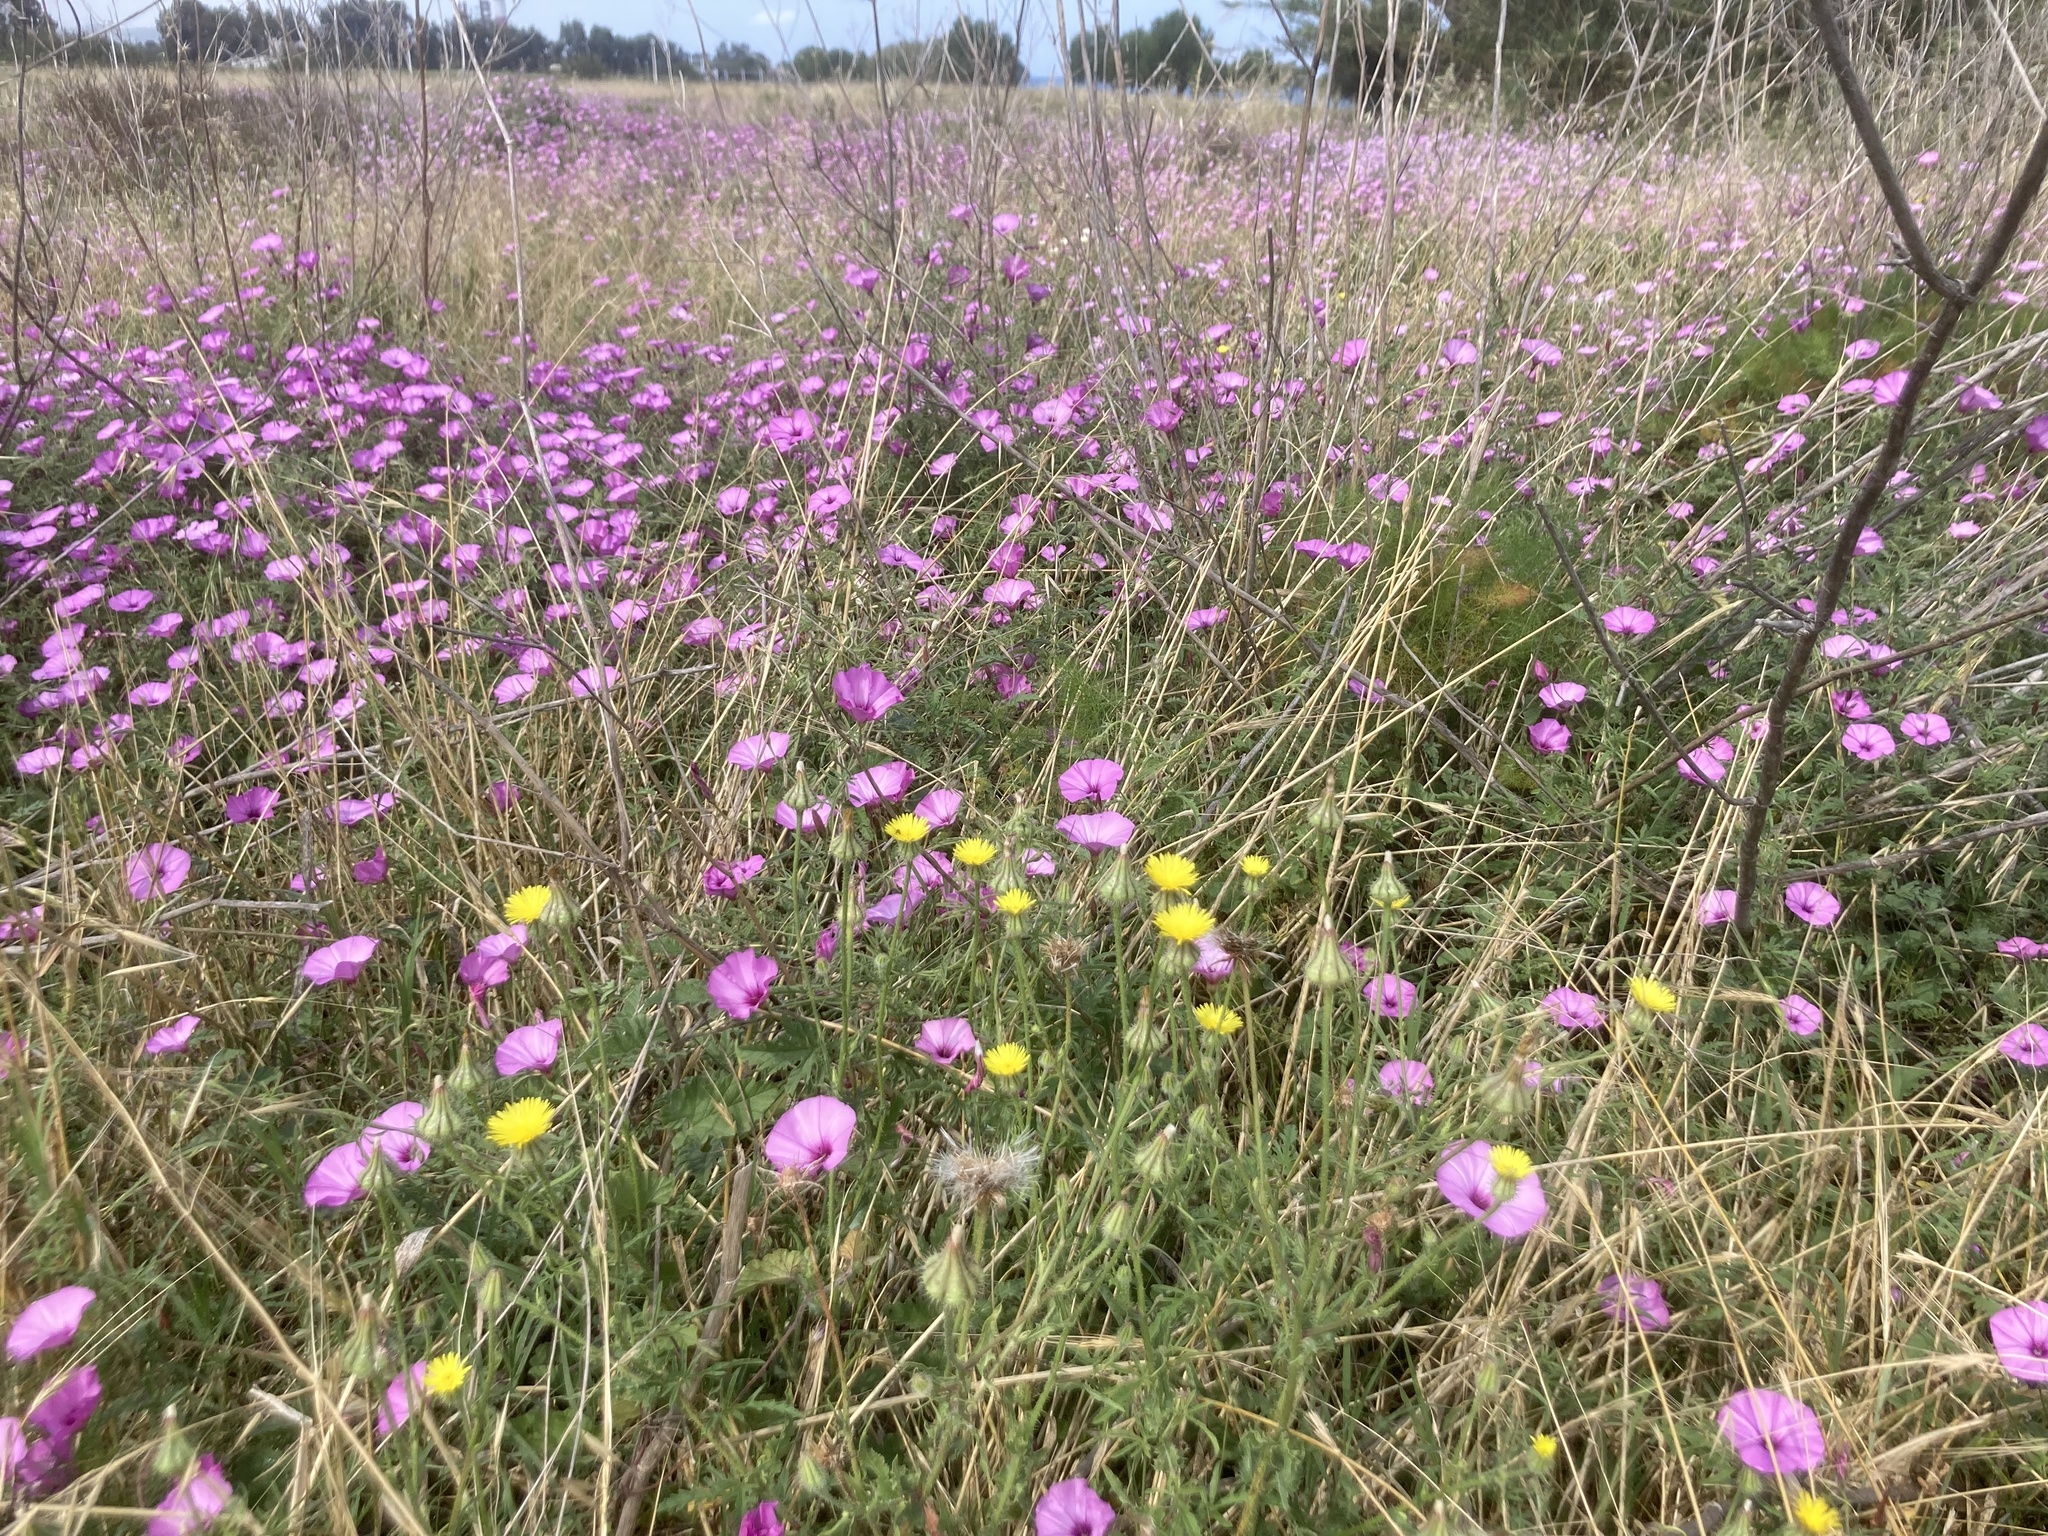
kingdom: Plantae
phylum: Tracheophyta
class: Magnoliopsida
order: Solanales
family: Convolvulaceae
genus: Convolvulus
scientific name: Convolvulus althaeoides
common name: Mallow bindweed
